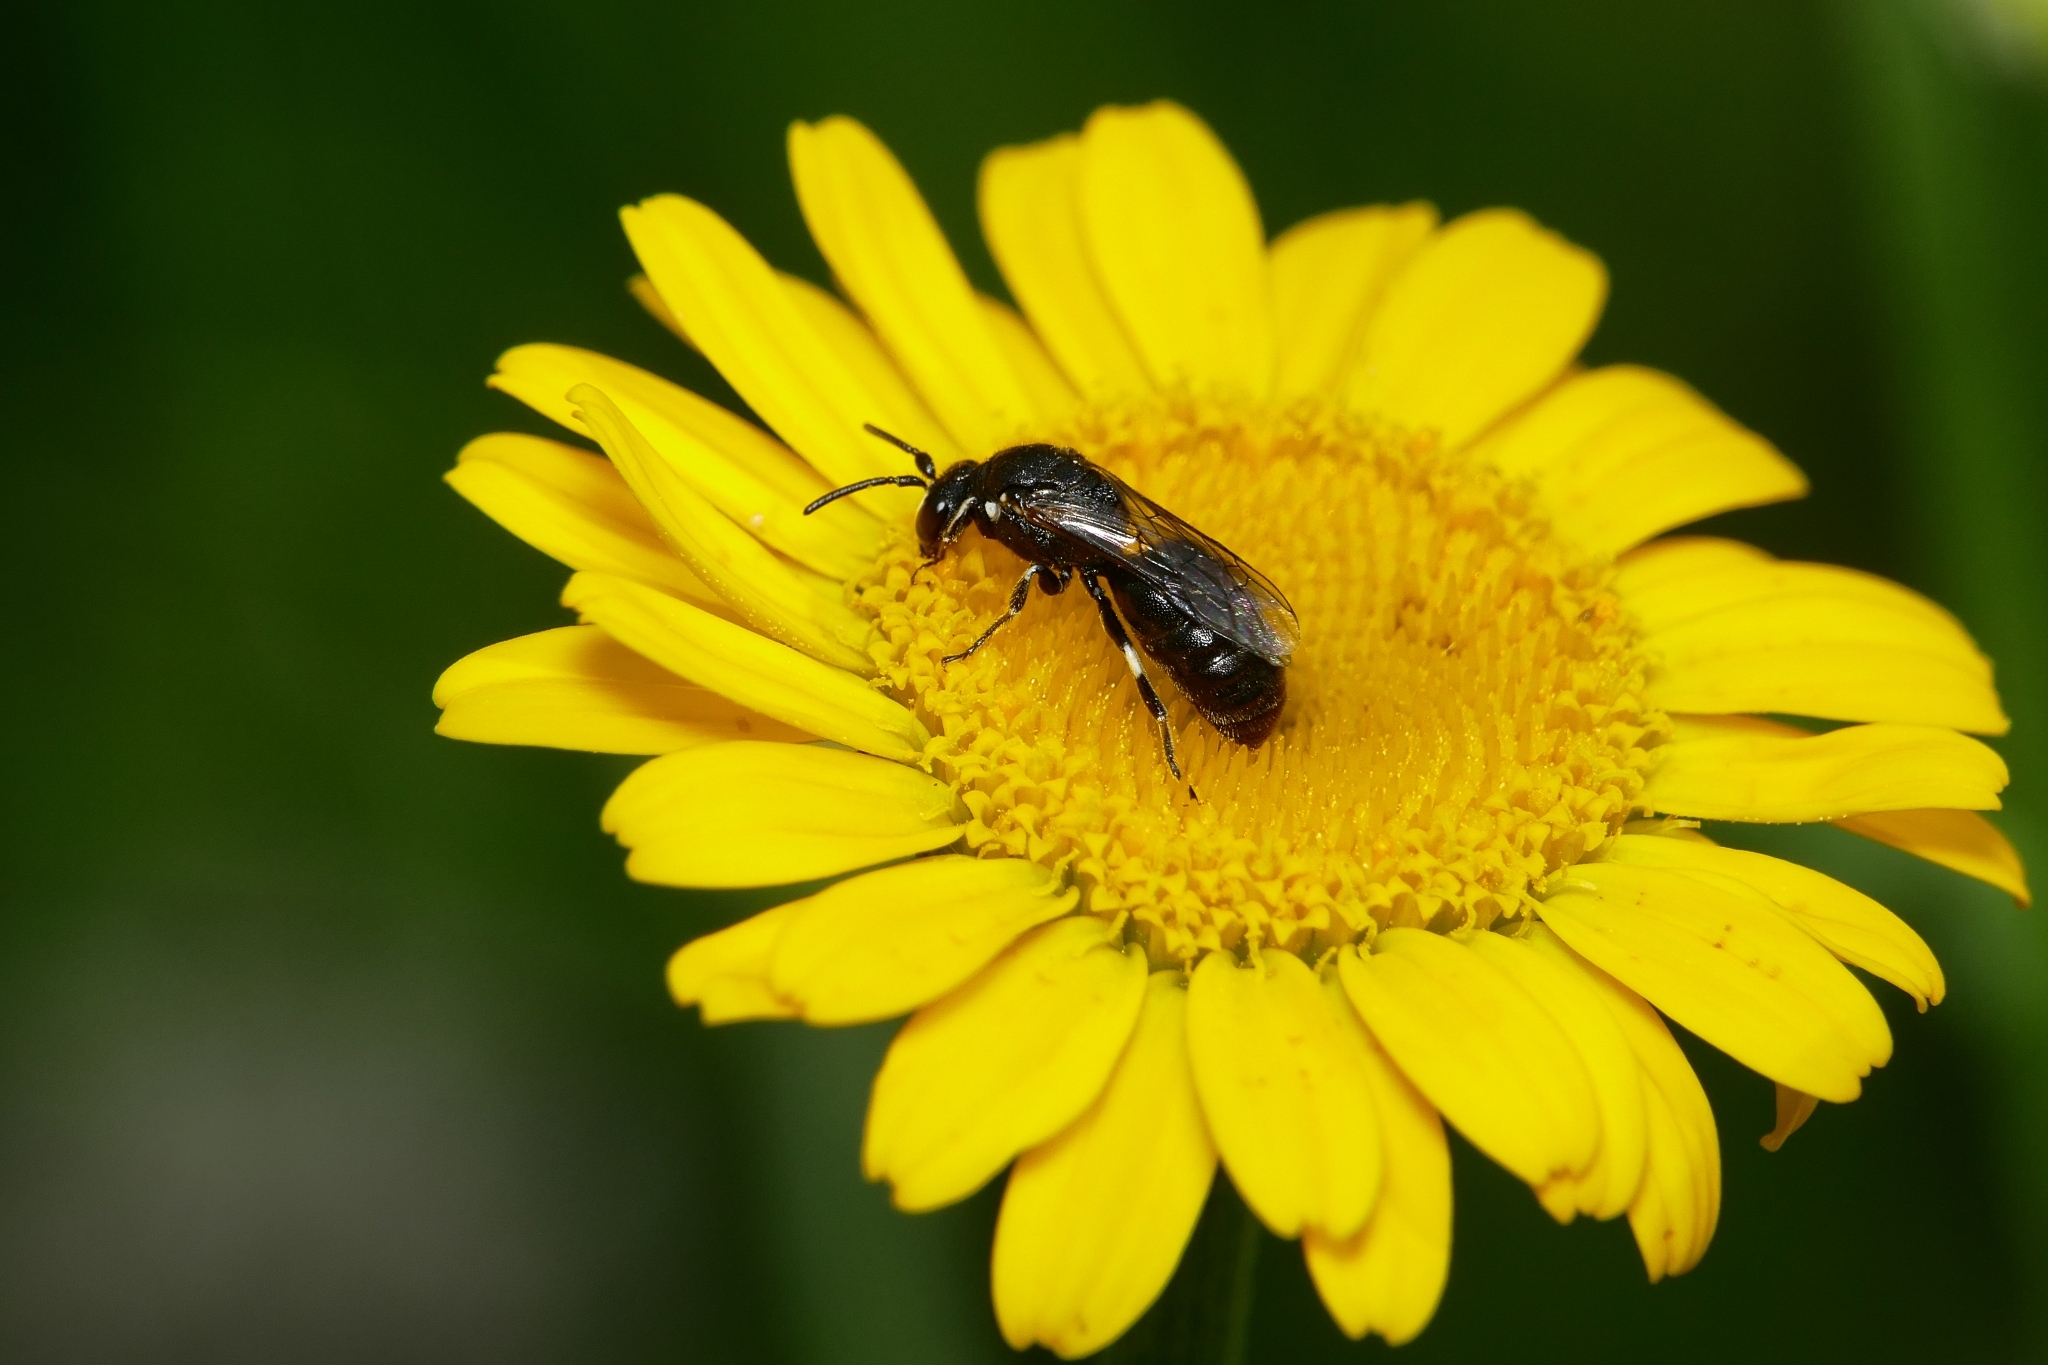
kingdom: Animalia
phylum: Arthropoda
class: Insecta
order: Hymenoptera
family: Colletidae
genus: Hylaeus
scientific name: Hylaeus nigritus
